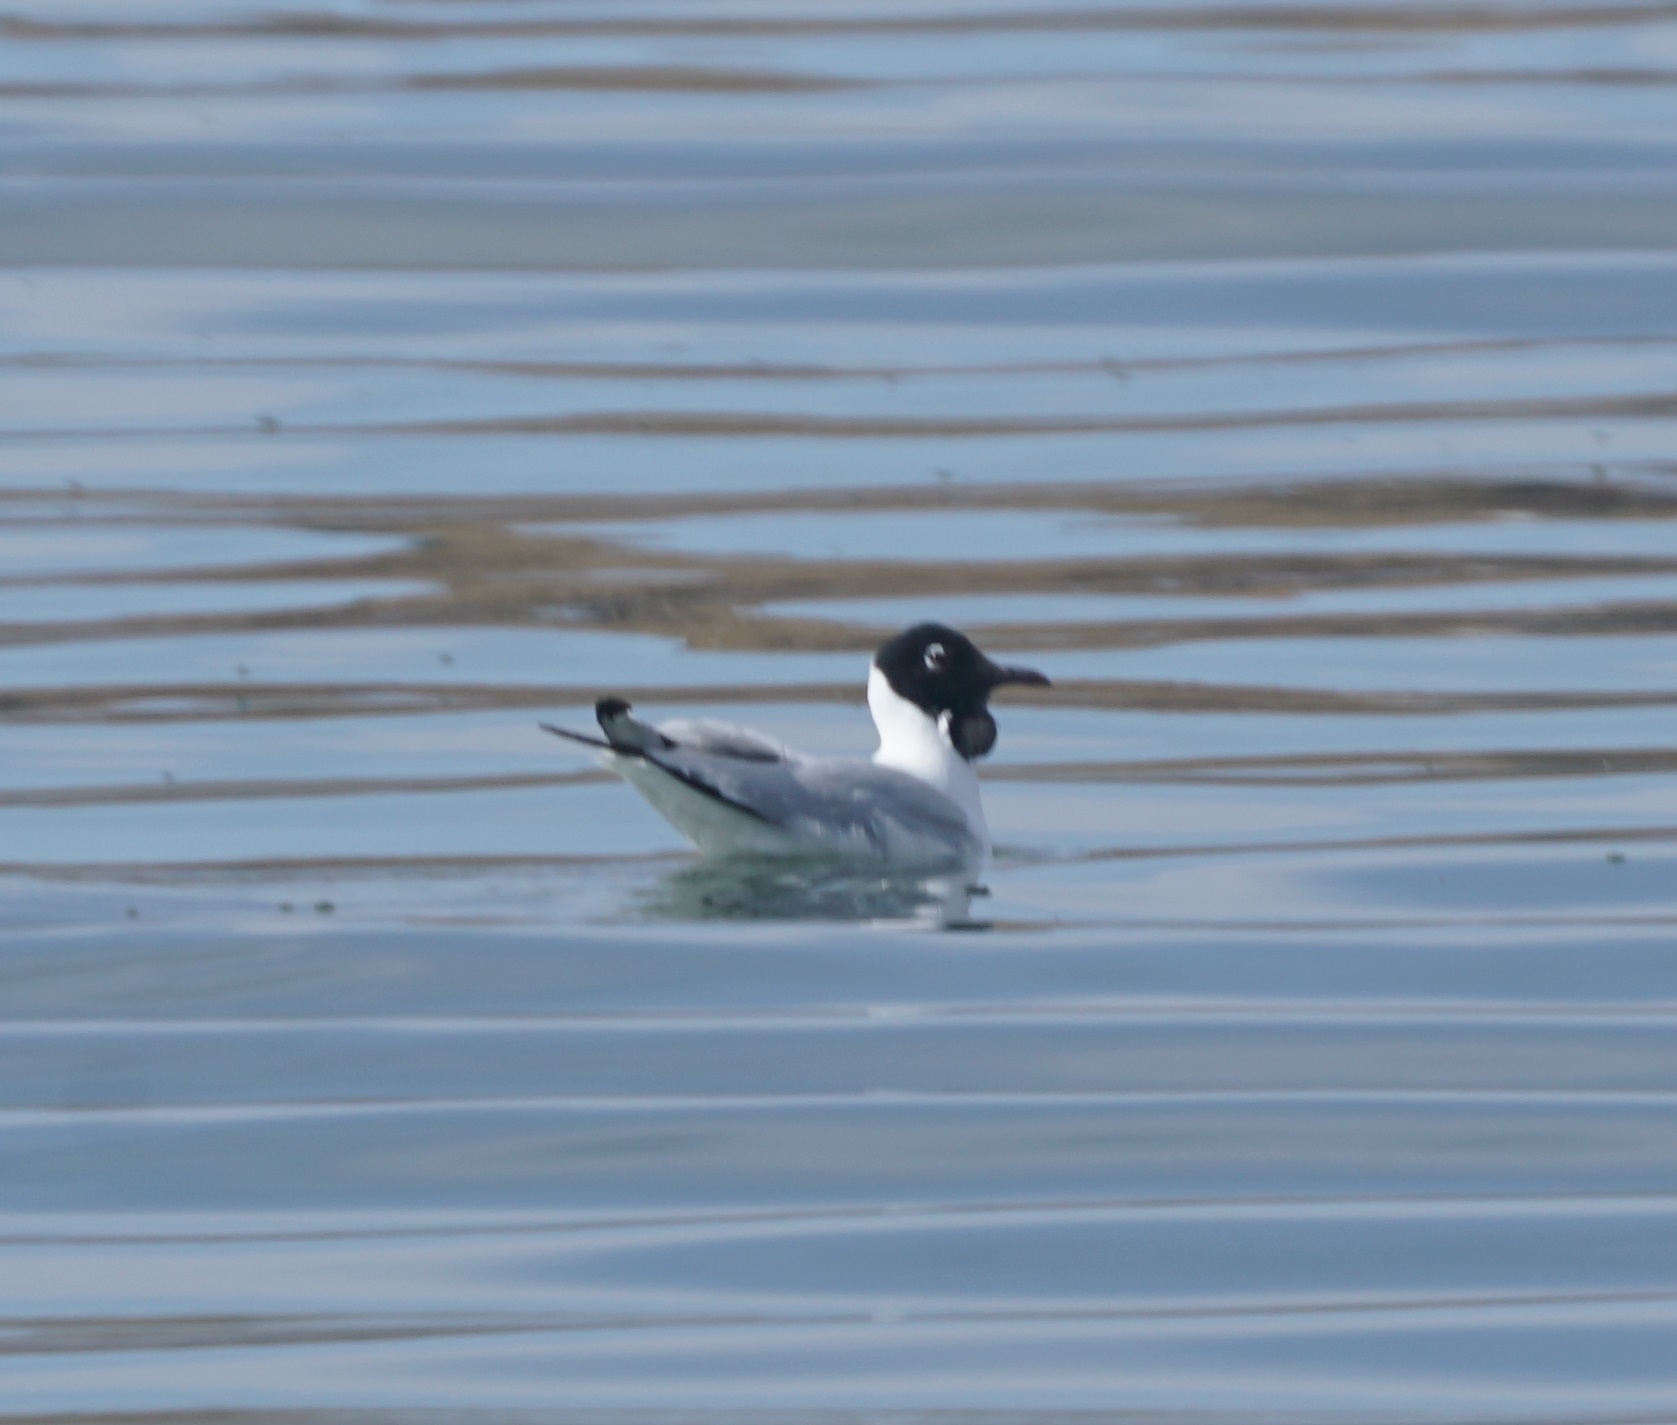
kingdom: Animalia
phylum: Chordata
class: Aves
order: Charadriiformes
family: Laridae
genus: Chroicocephalus
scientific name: Chroicocephalus serranus
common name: Andean gull
